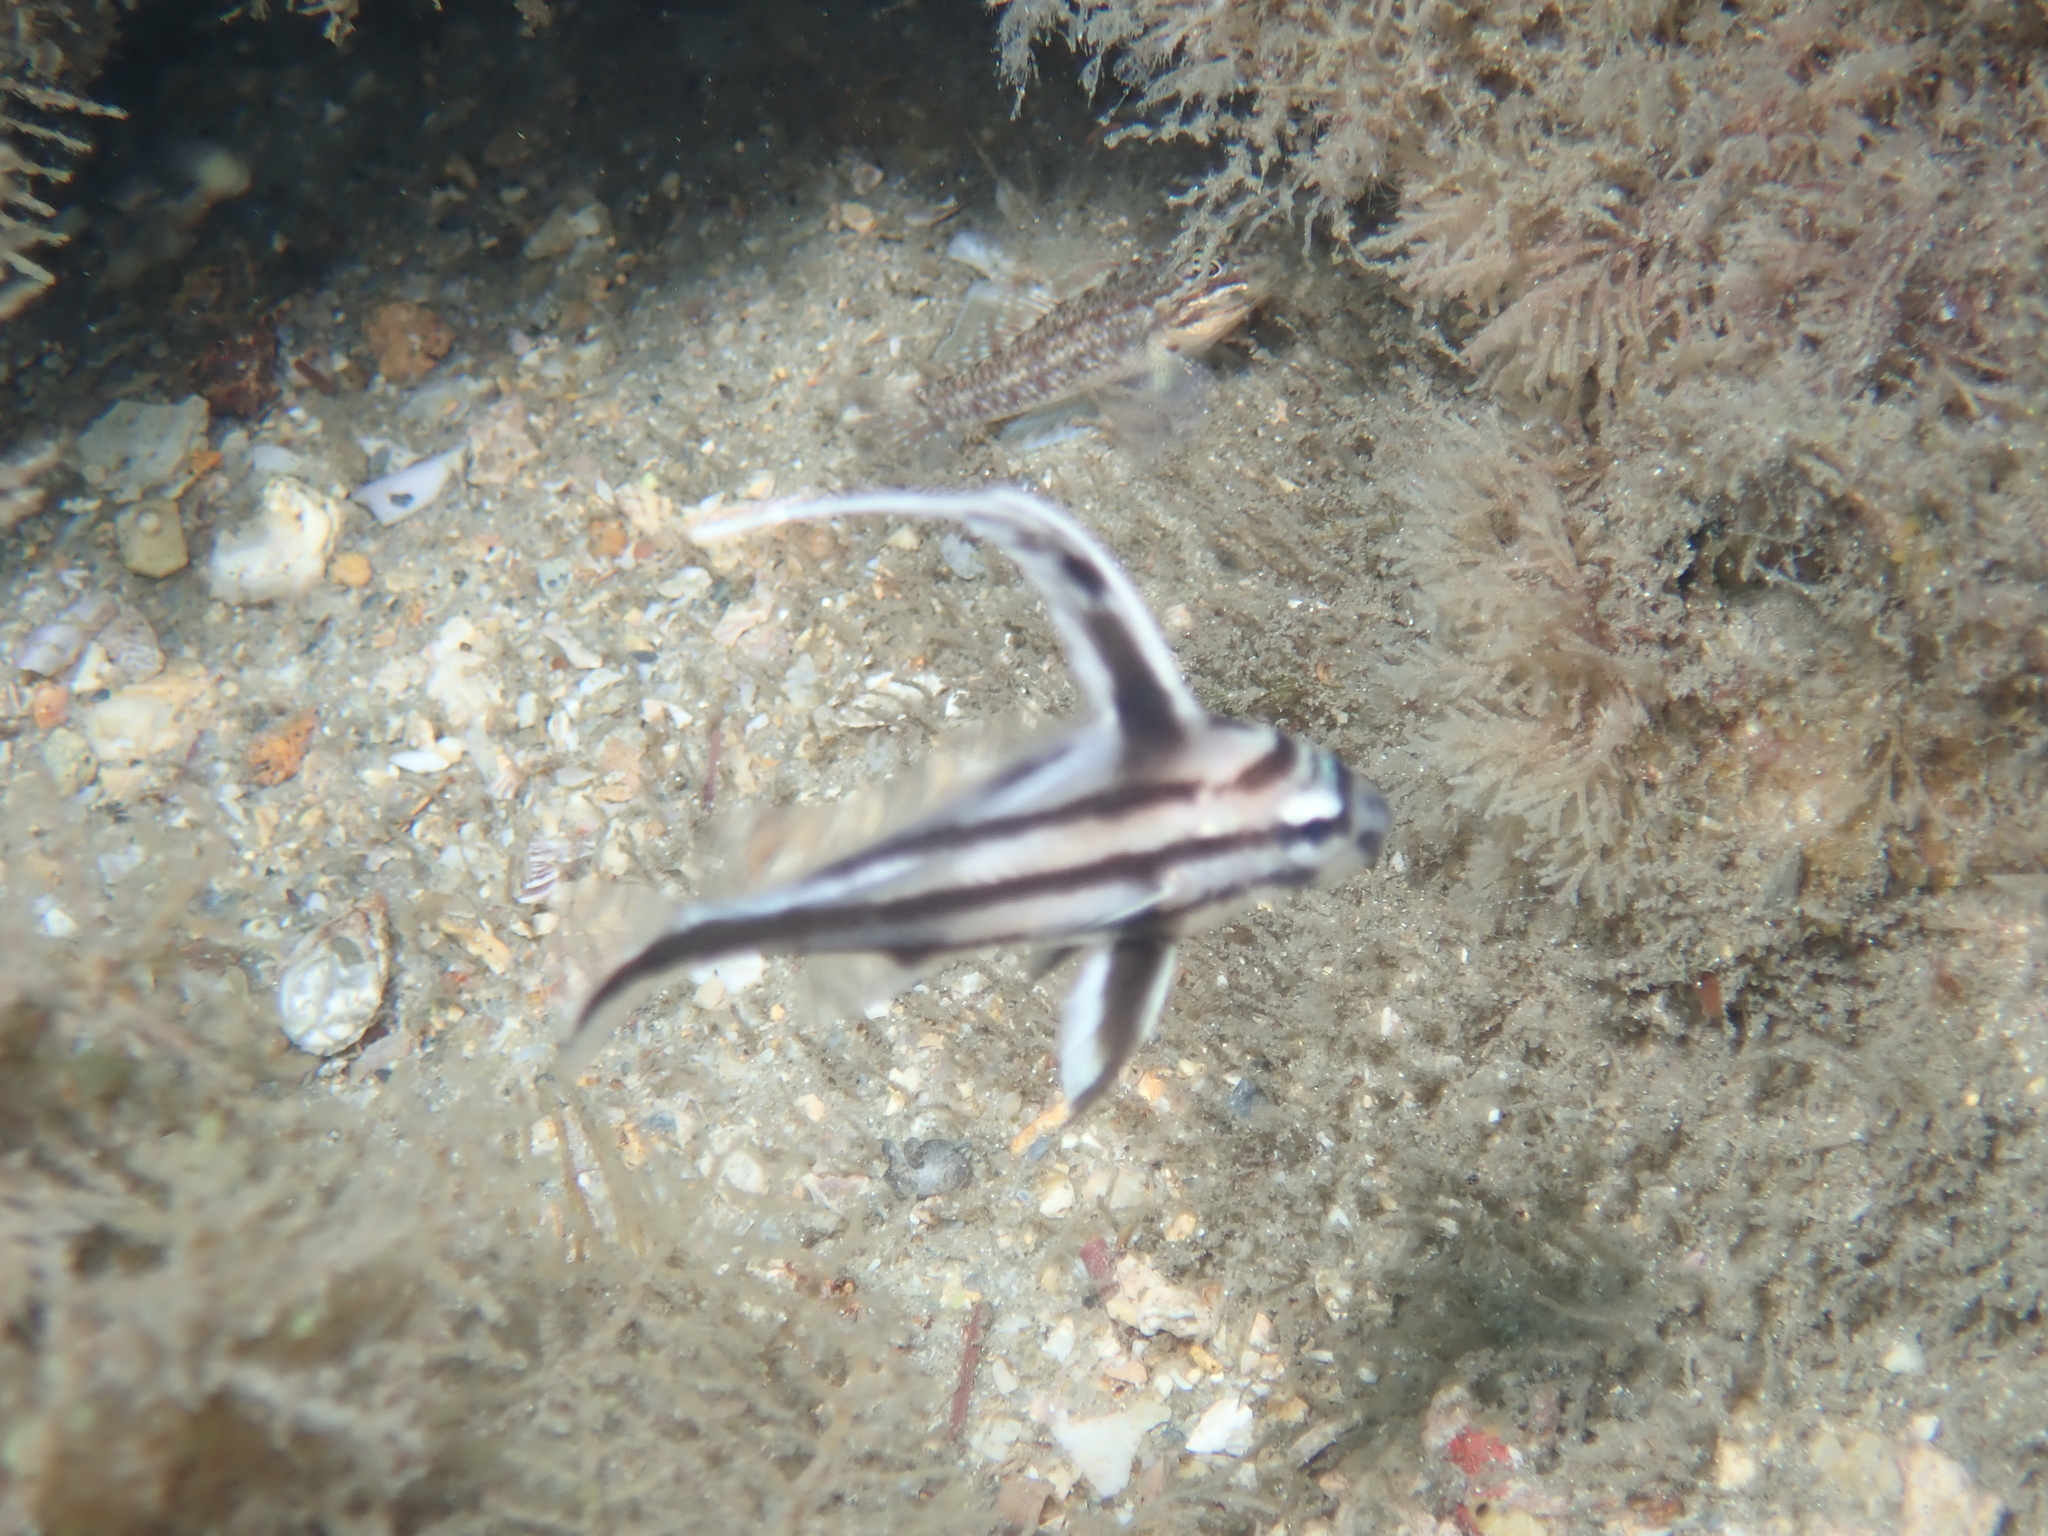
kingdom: Animalia
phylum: Chordata
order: Perciformes
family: Sciaenidae
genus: Pareques
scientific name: Pareques acuminatus
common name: High-hat
